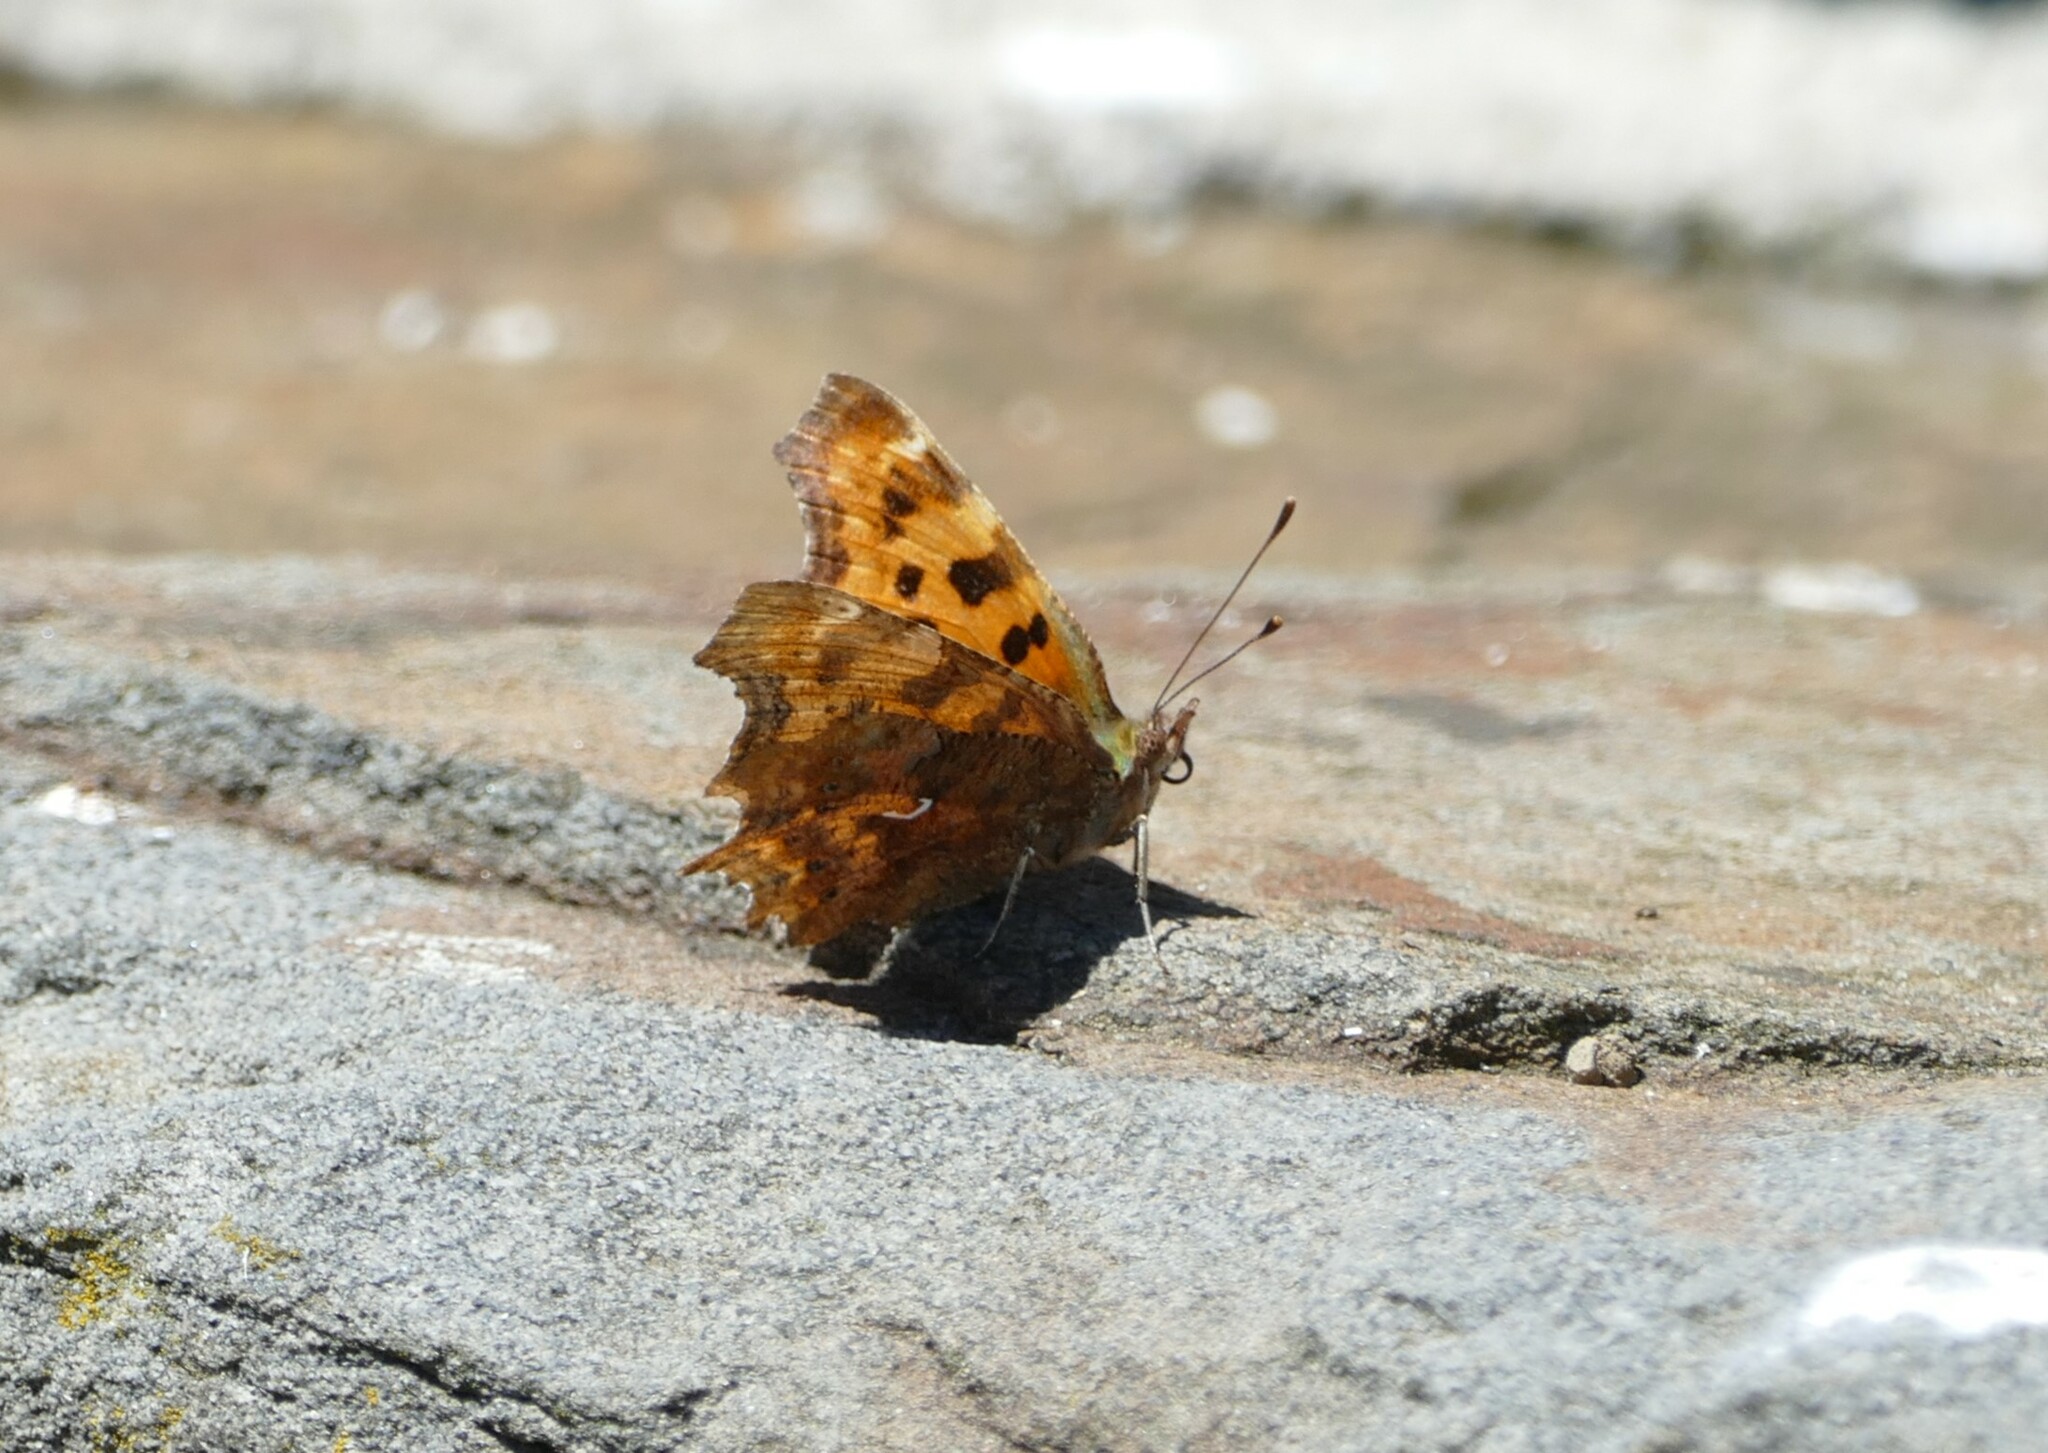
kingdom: Animalia
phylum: Arthropoda
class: Insecta
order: Lepidoptera
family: Nymphalidae
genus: Polygonia
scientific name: Polygonia c-album
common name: Comma
